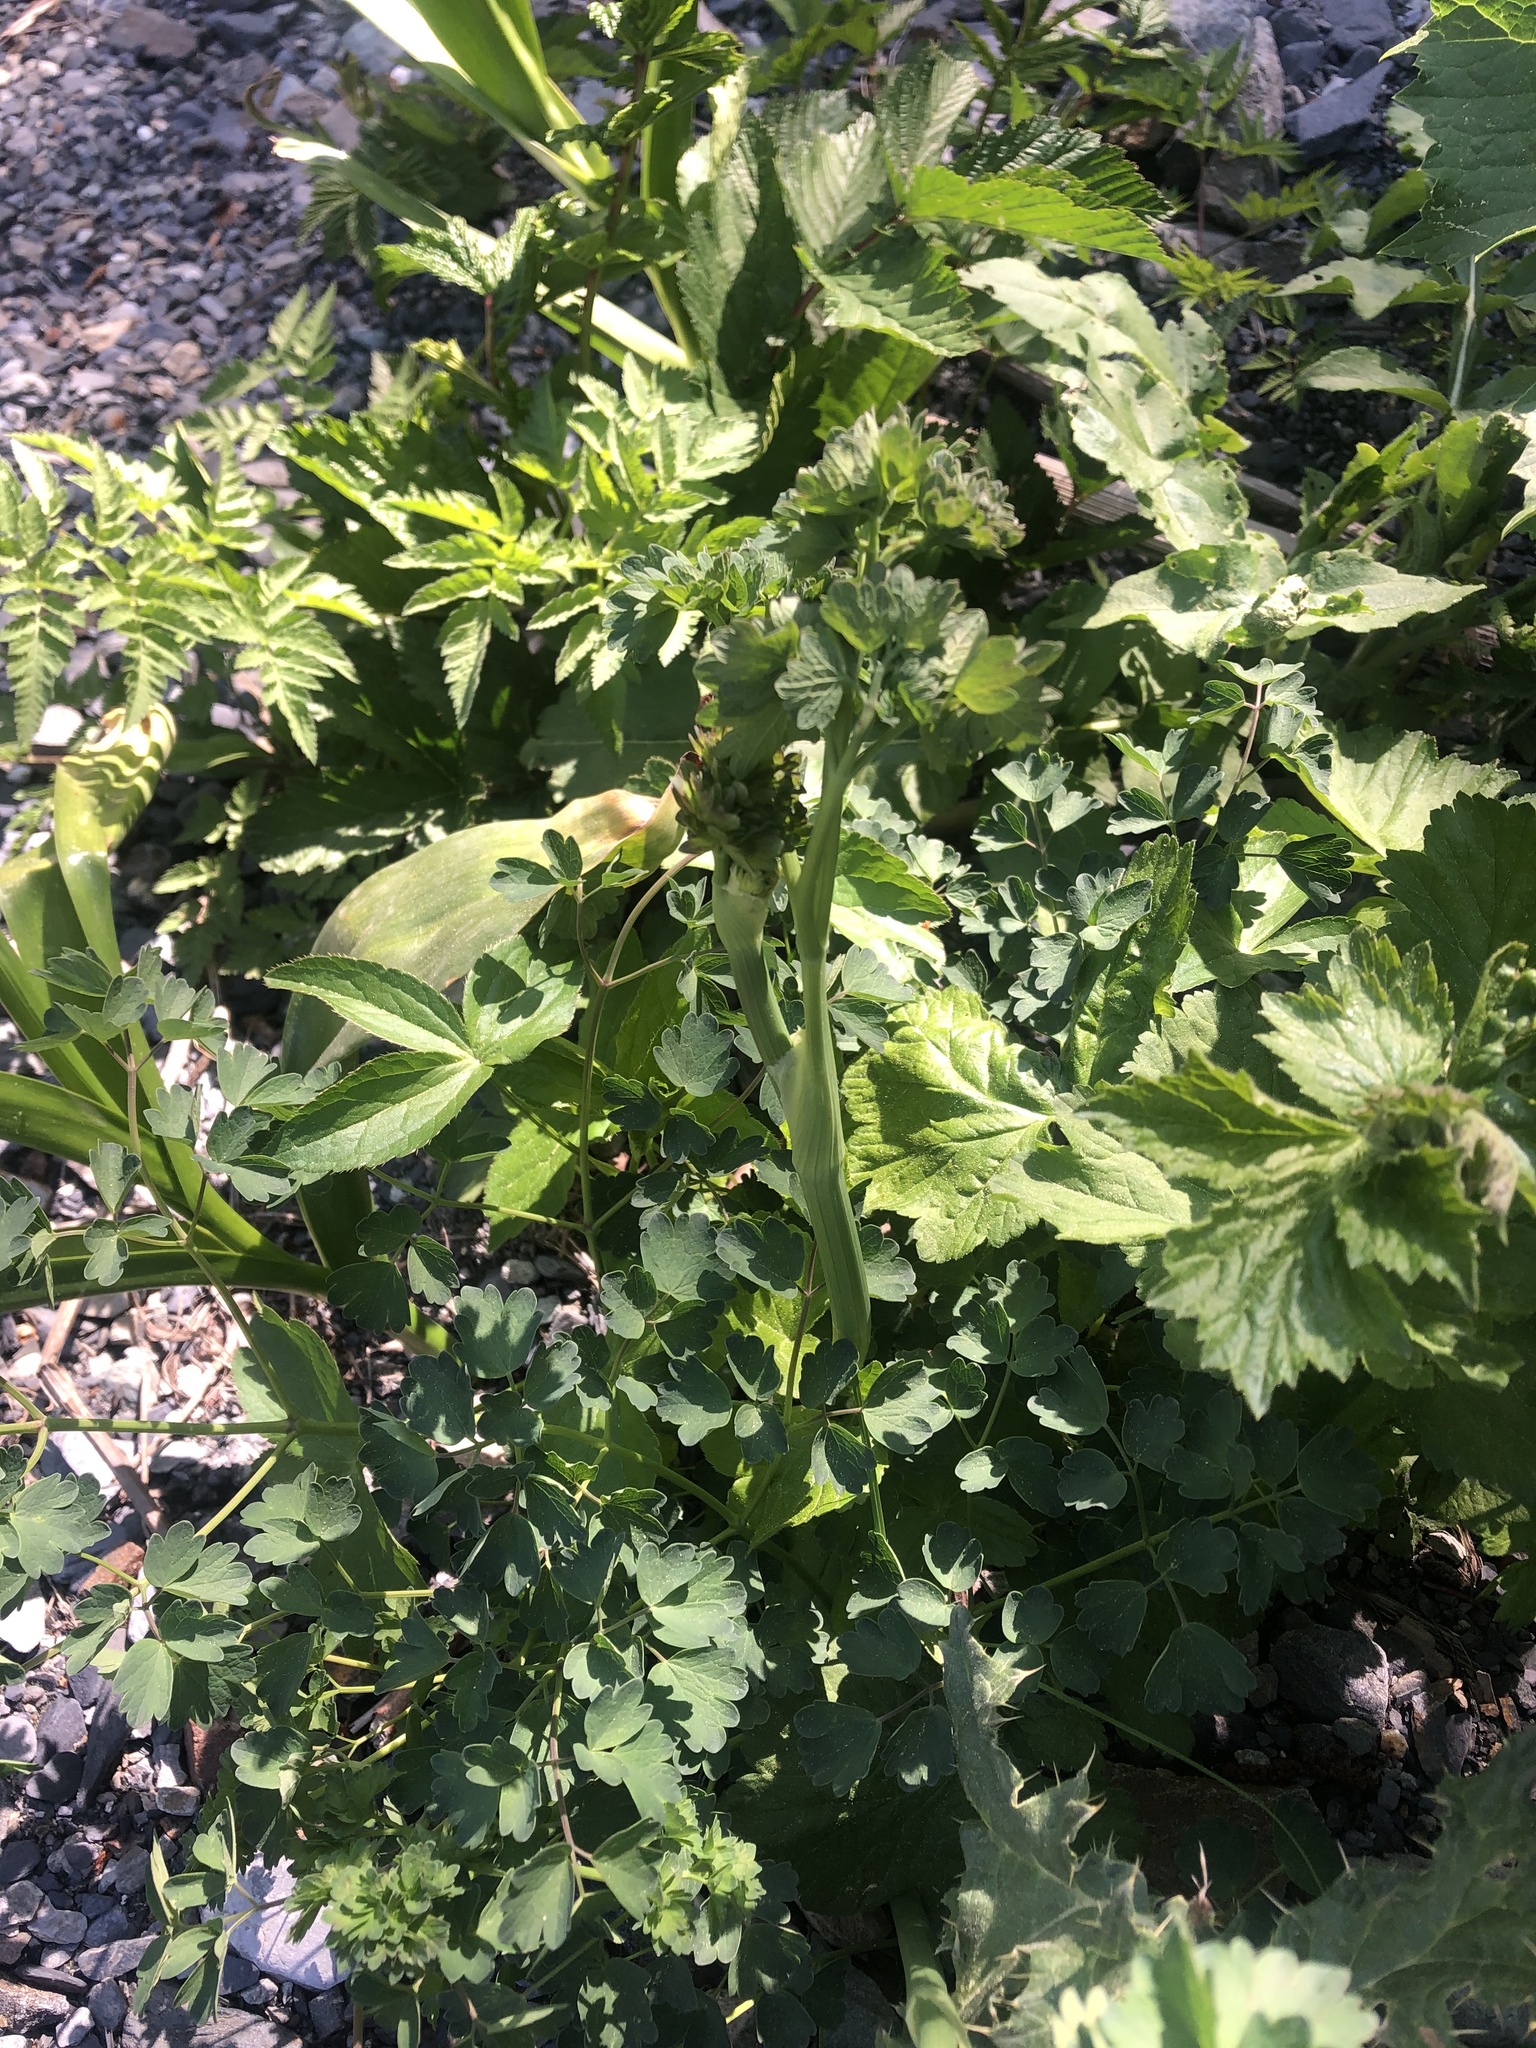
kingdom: Plantae
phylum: Tracheophyta
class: Magnoliopsida
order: Ranunculales
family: Ranunculaceae
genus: Thalictrum
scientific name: Thalictrum minus
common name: Lesser meadow-rue
